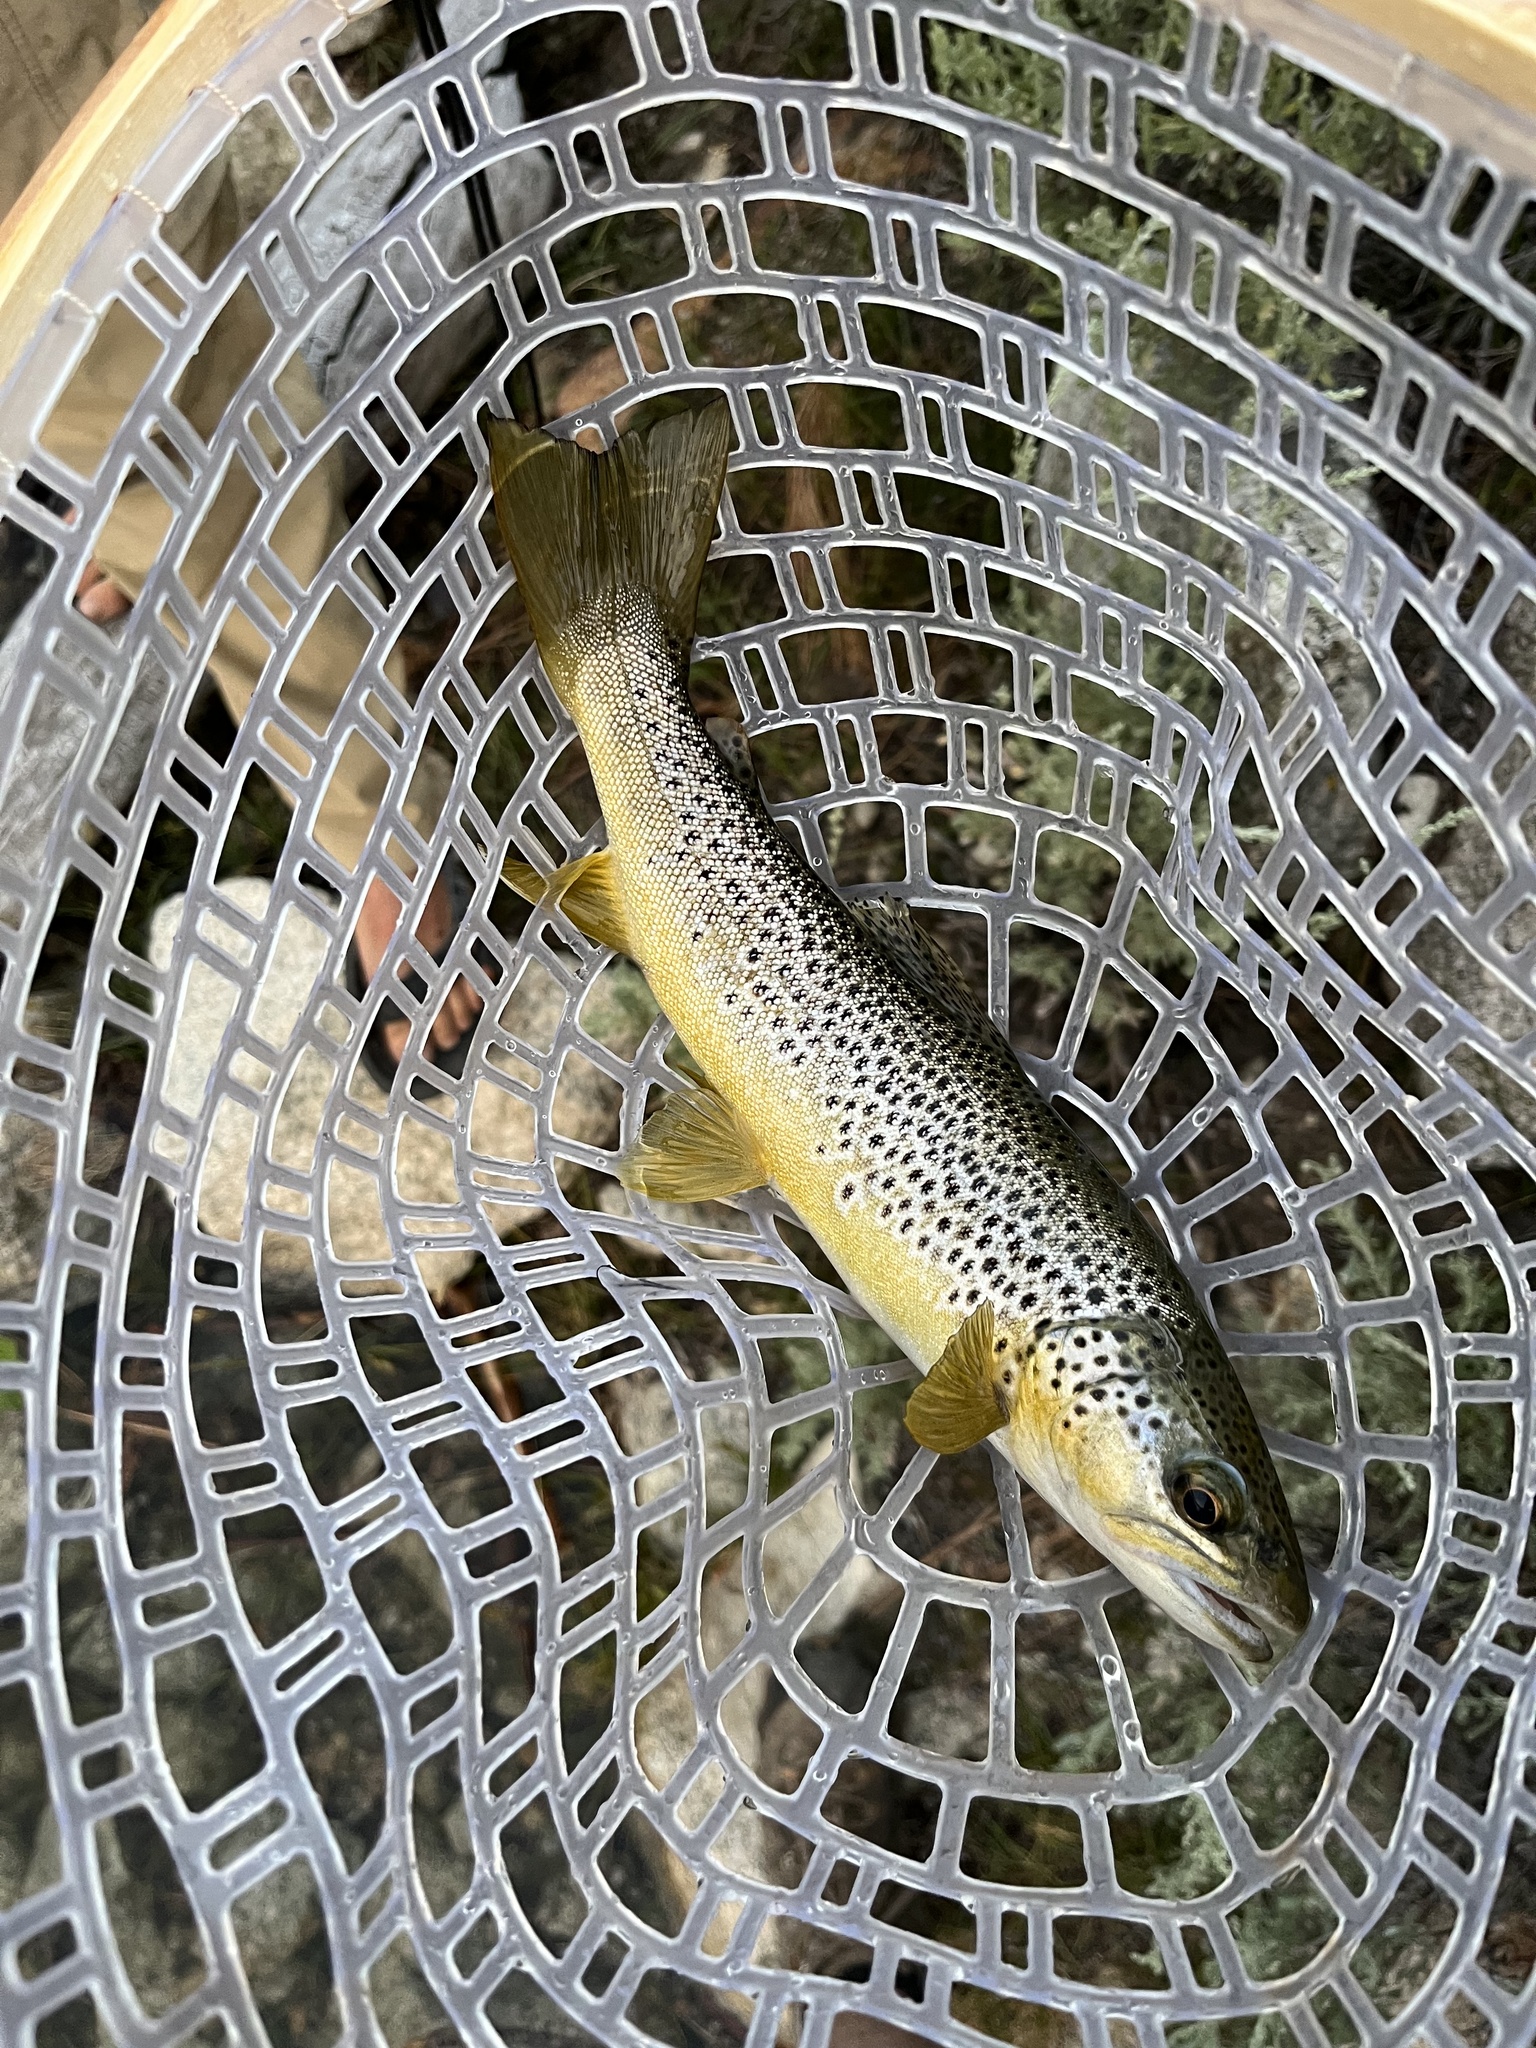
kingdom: Animalia
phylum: Chordata
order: Salmoniformes
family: Salmonidae
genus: Salmo
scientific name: Salmo trutta
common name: Brown trout
